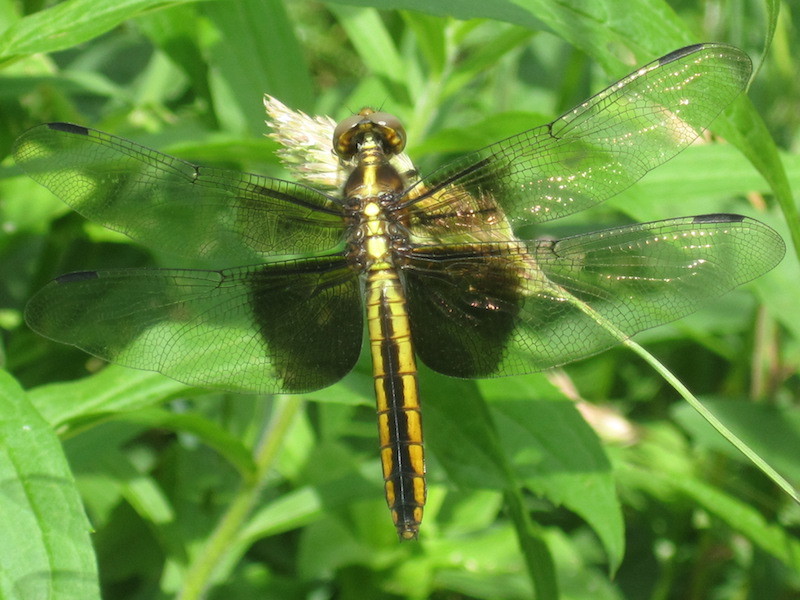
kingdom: Animalia
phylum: Arthropoda
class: Insecta
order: Odonata
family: Libellulidae
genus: Libellula
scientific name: Libellula luctuosa
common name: Widow skimmer
